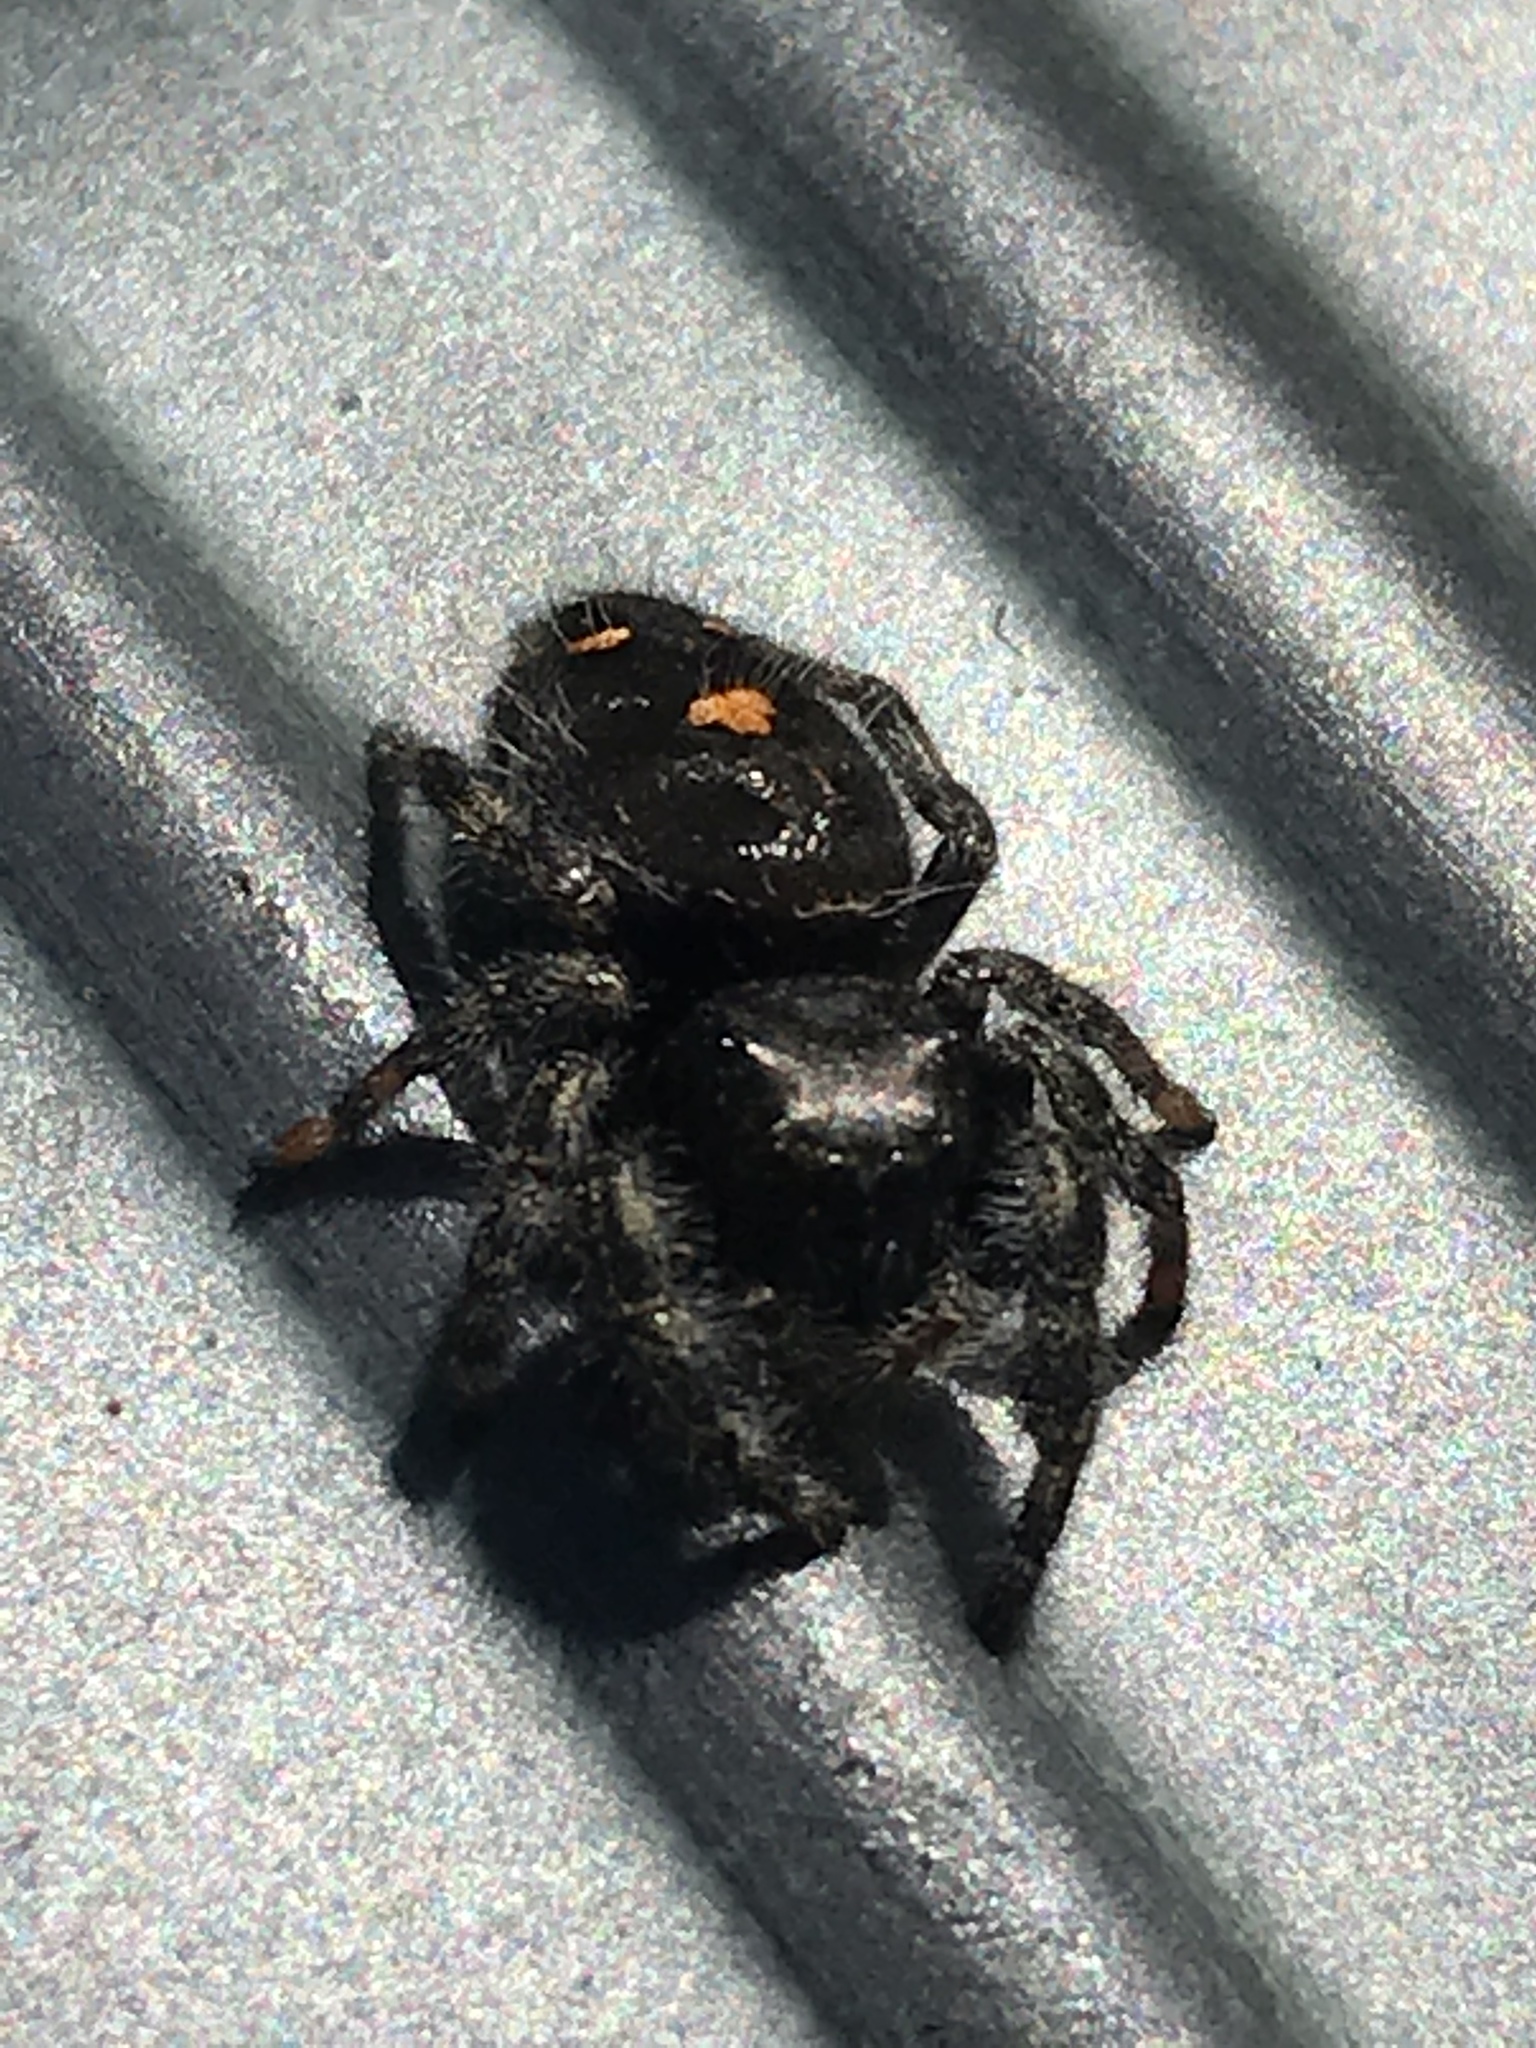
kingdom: Animalia
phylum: Arthropoda
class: Arachnida
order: Araneae
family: Salticidae
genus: Phidippus
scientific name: Phidippus audax
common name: Bold jumper
